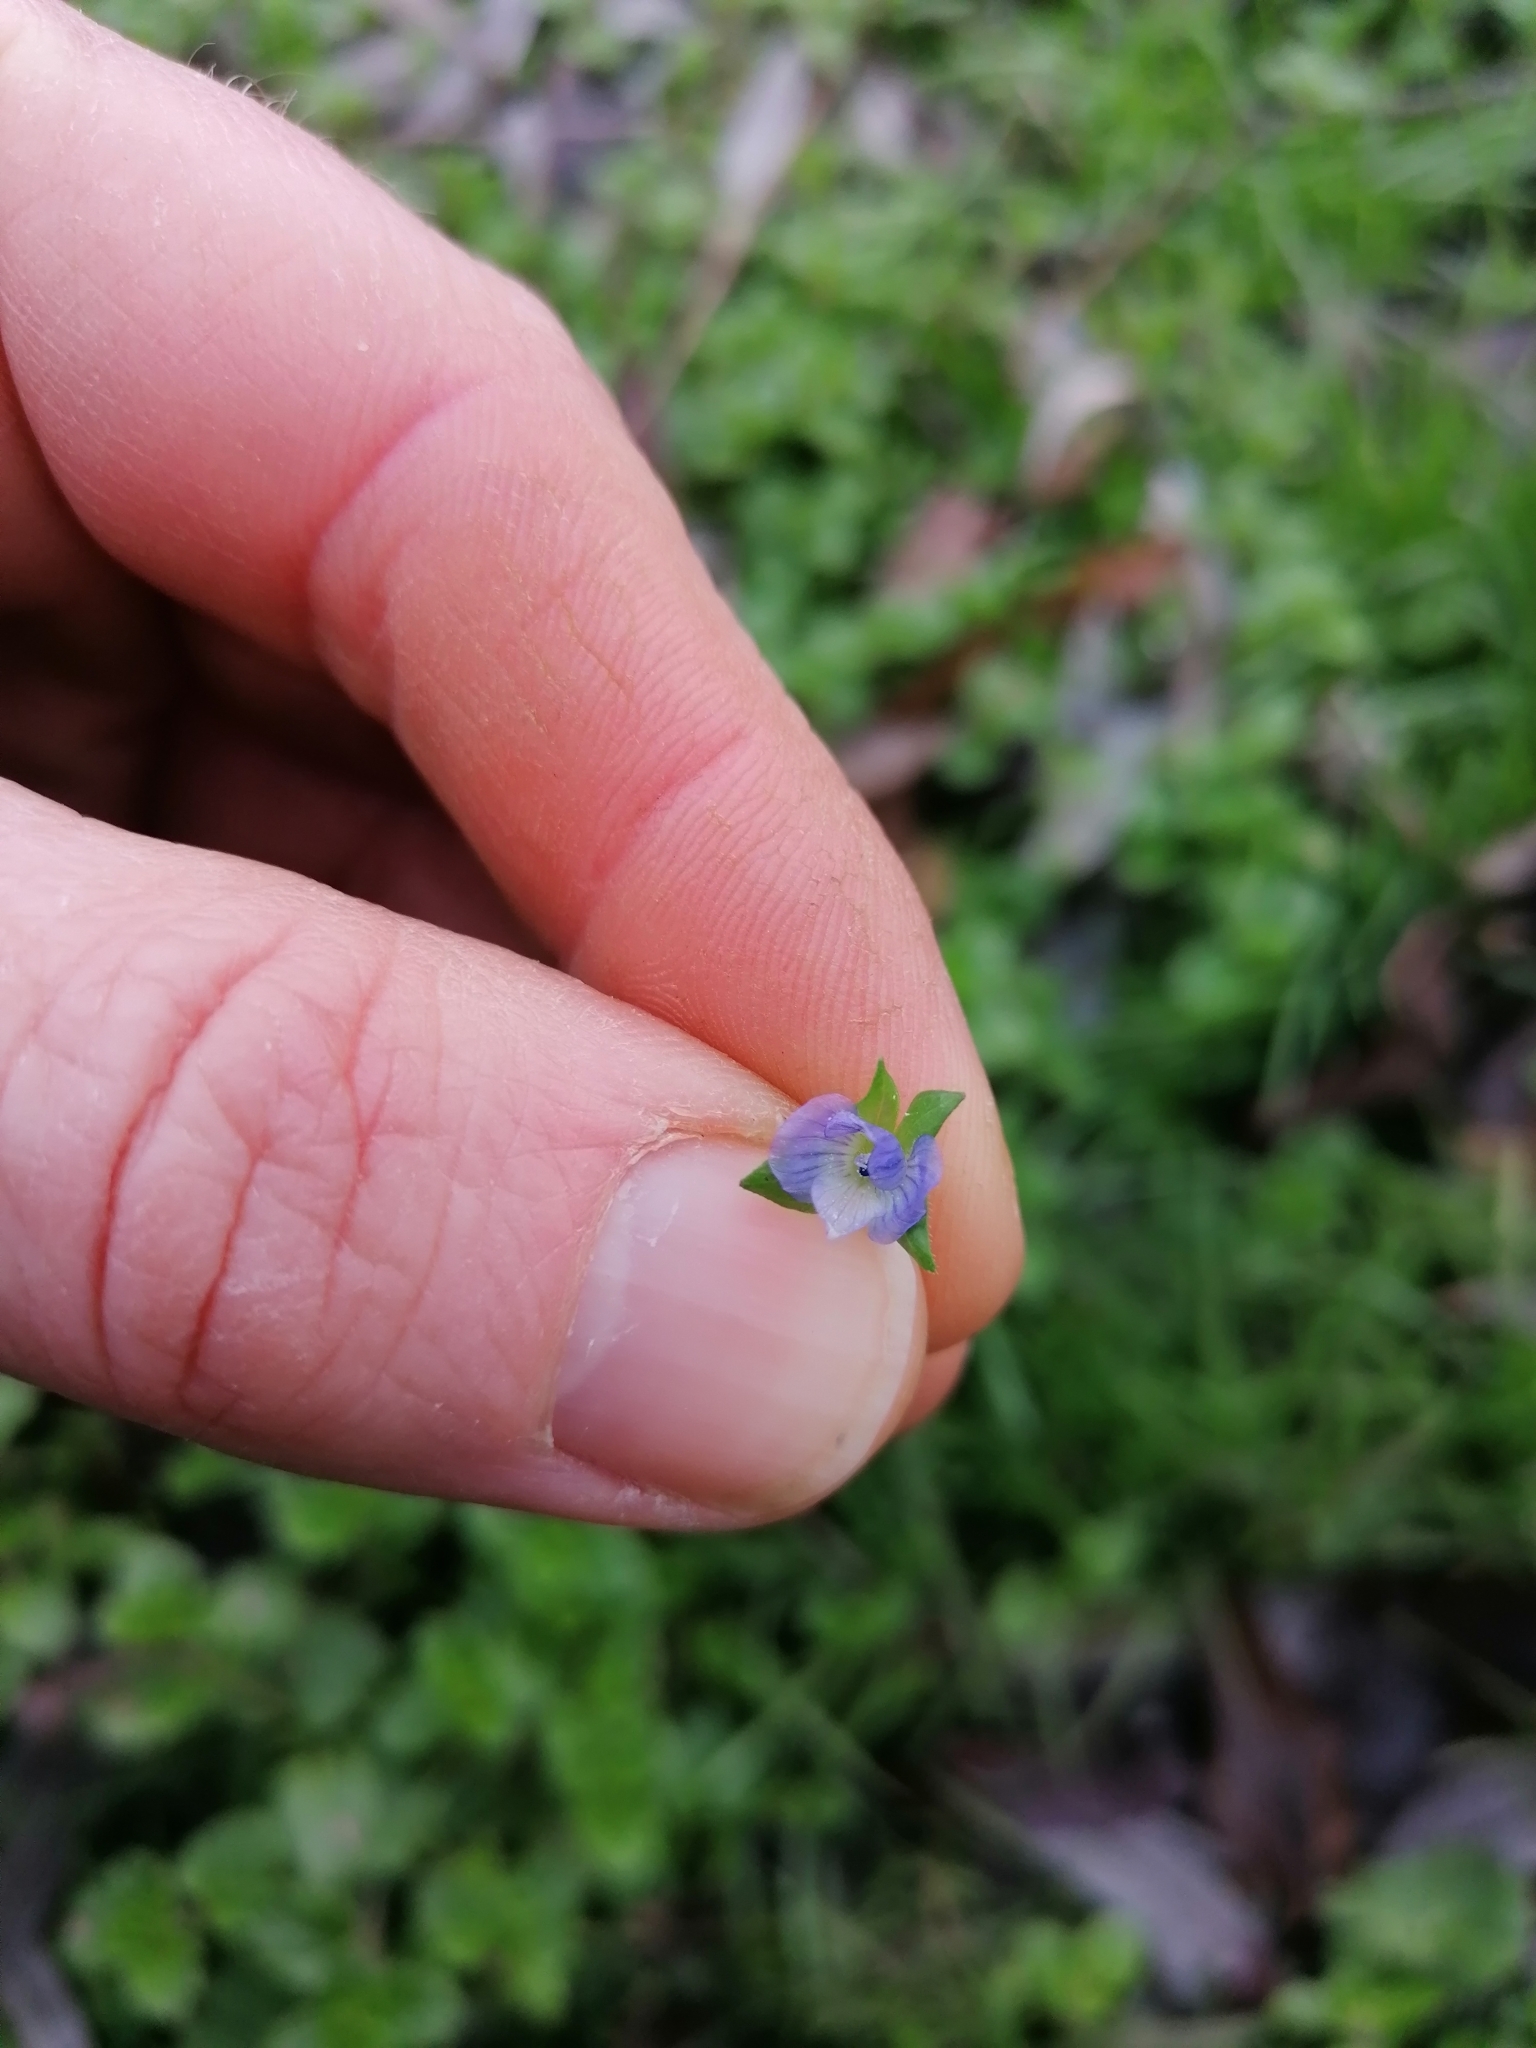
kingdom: Plantae
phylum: Tracheophyta
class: Magnoliopsida
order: Lamiales
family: Plantaginaceae
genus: Veronica
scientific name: Veronica persica
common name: Common field-speedwell
